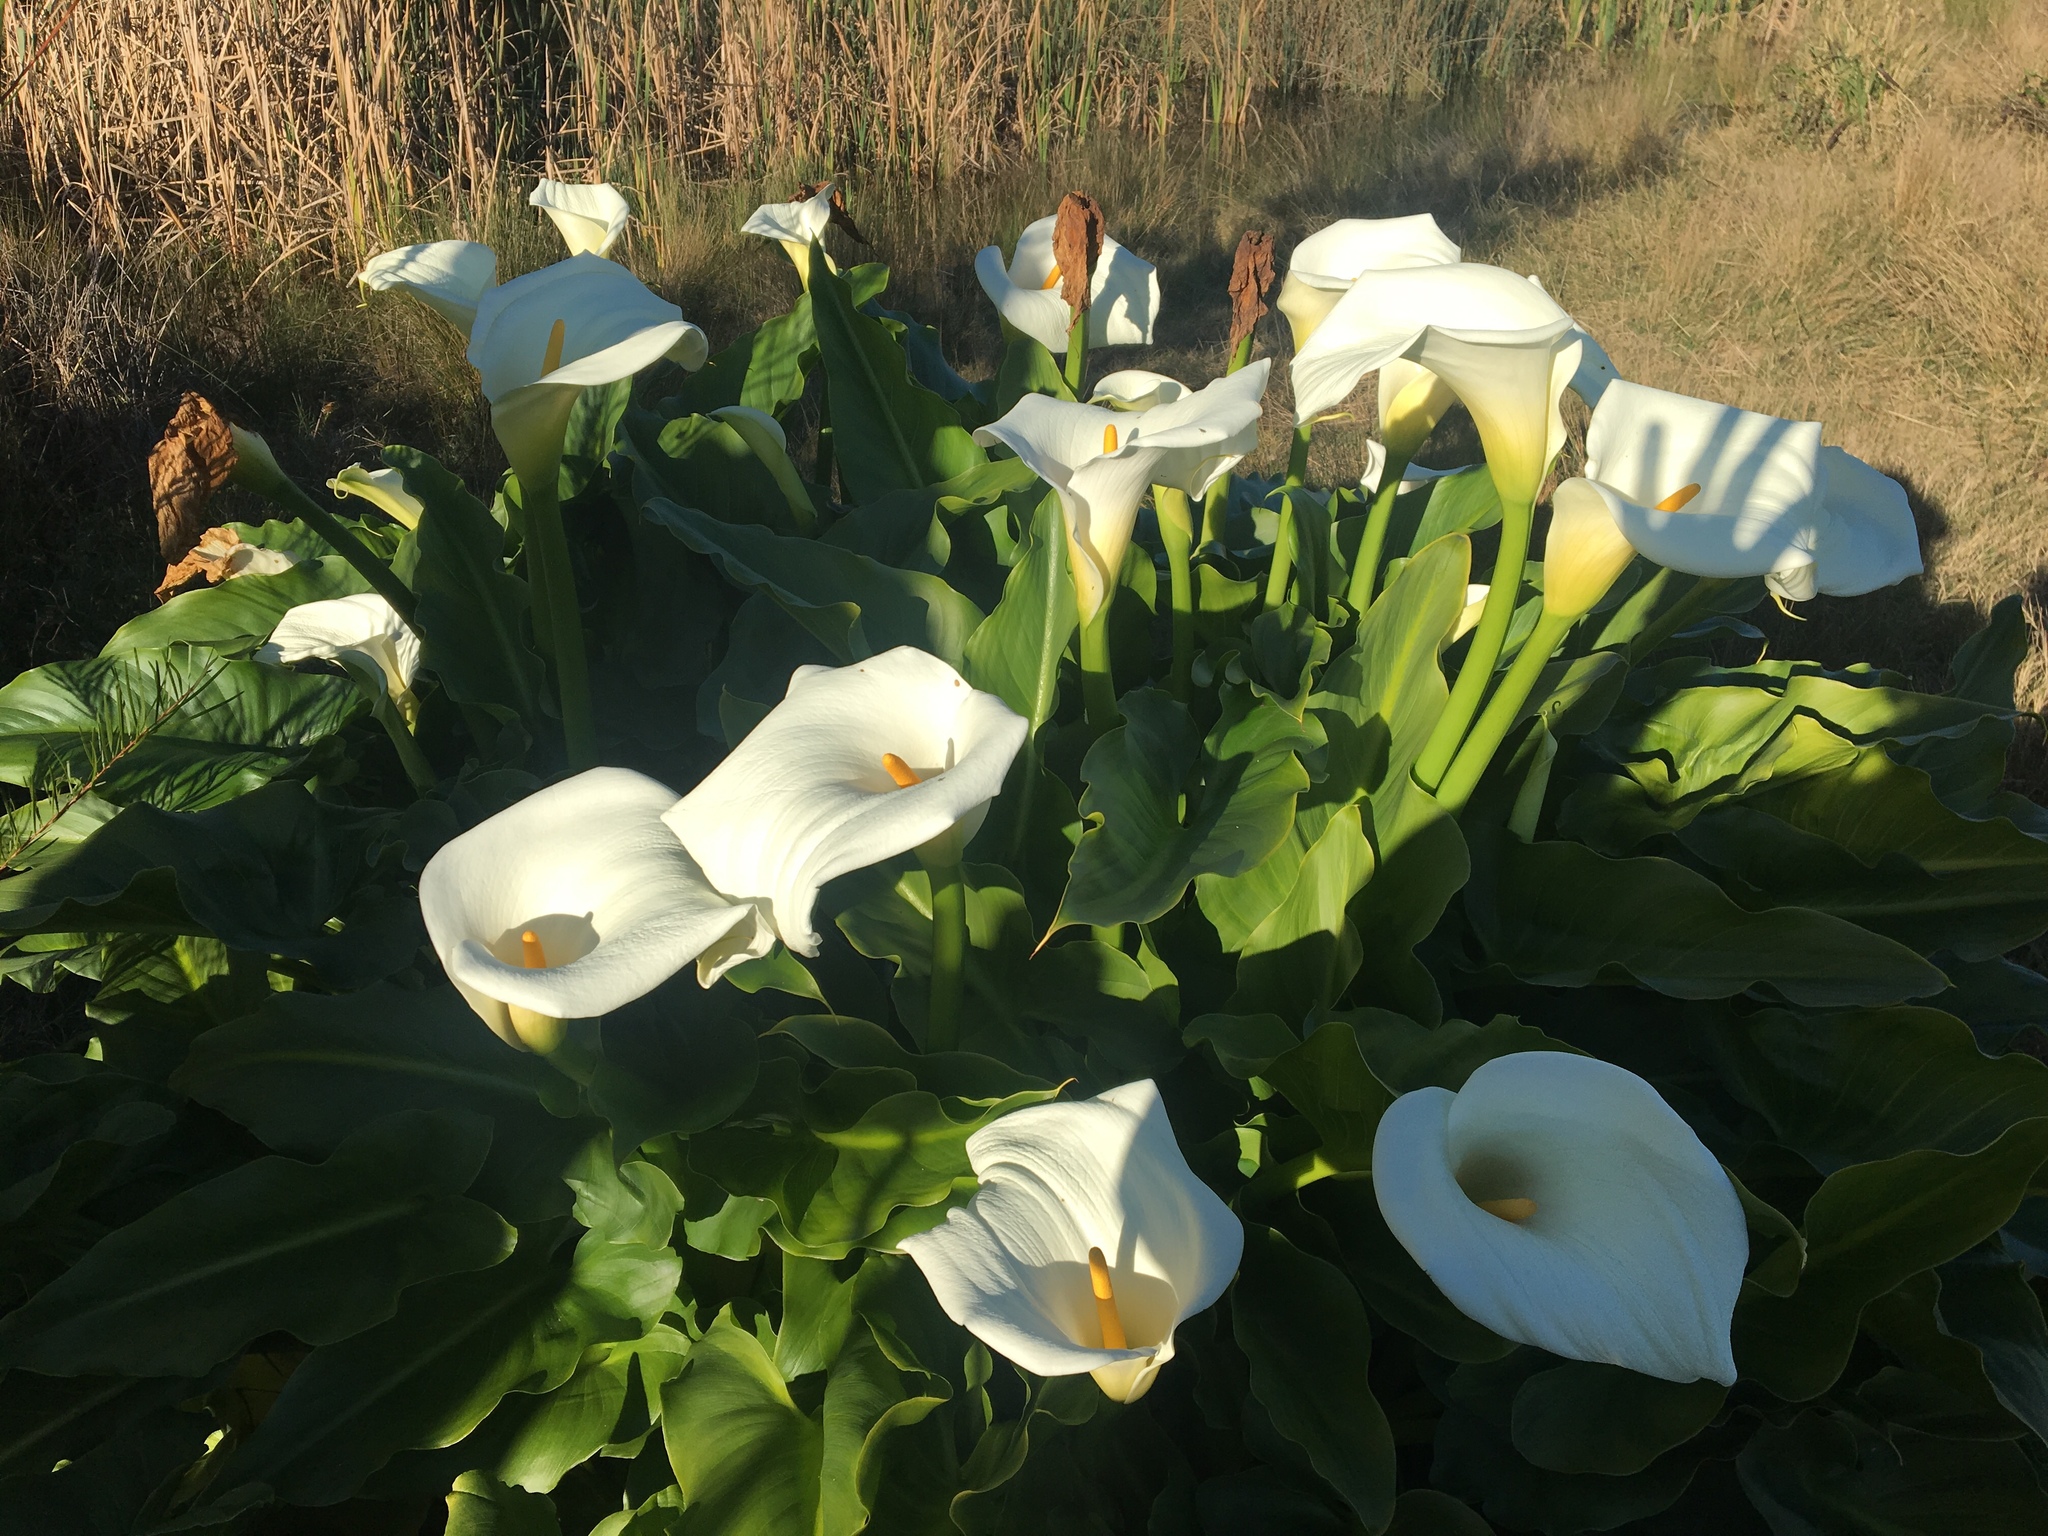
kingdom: Plantae
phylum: Tracheophyta
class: Liliopsida
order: Alismatales
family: Araceae
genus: Zantedeschia
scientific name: Zantedeschia aethiopica
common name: Altar-lily
